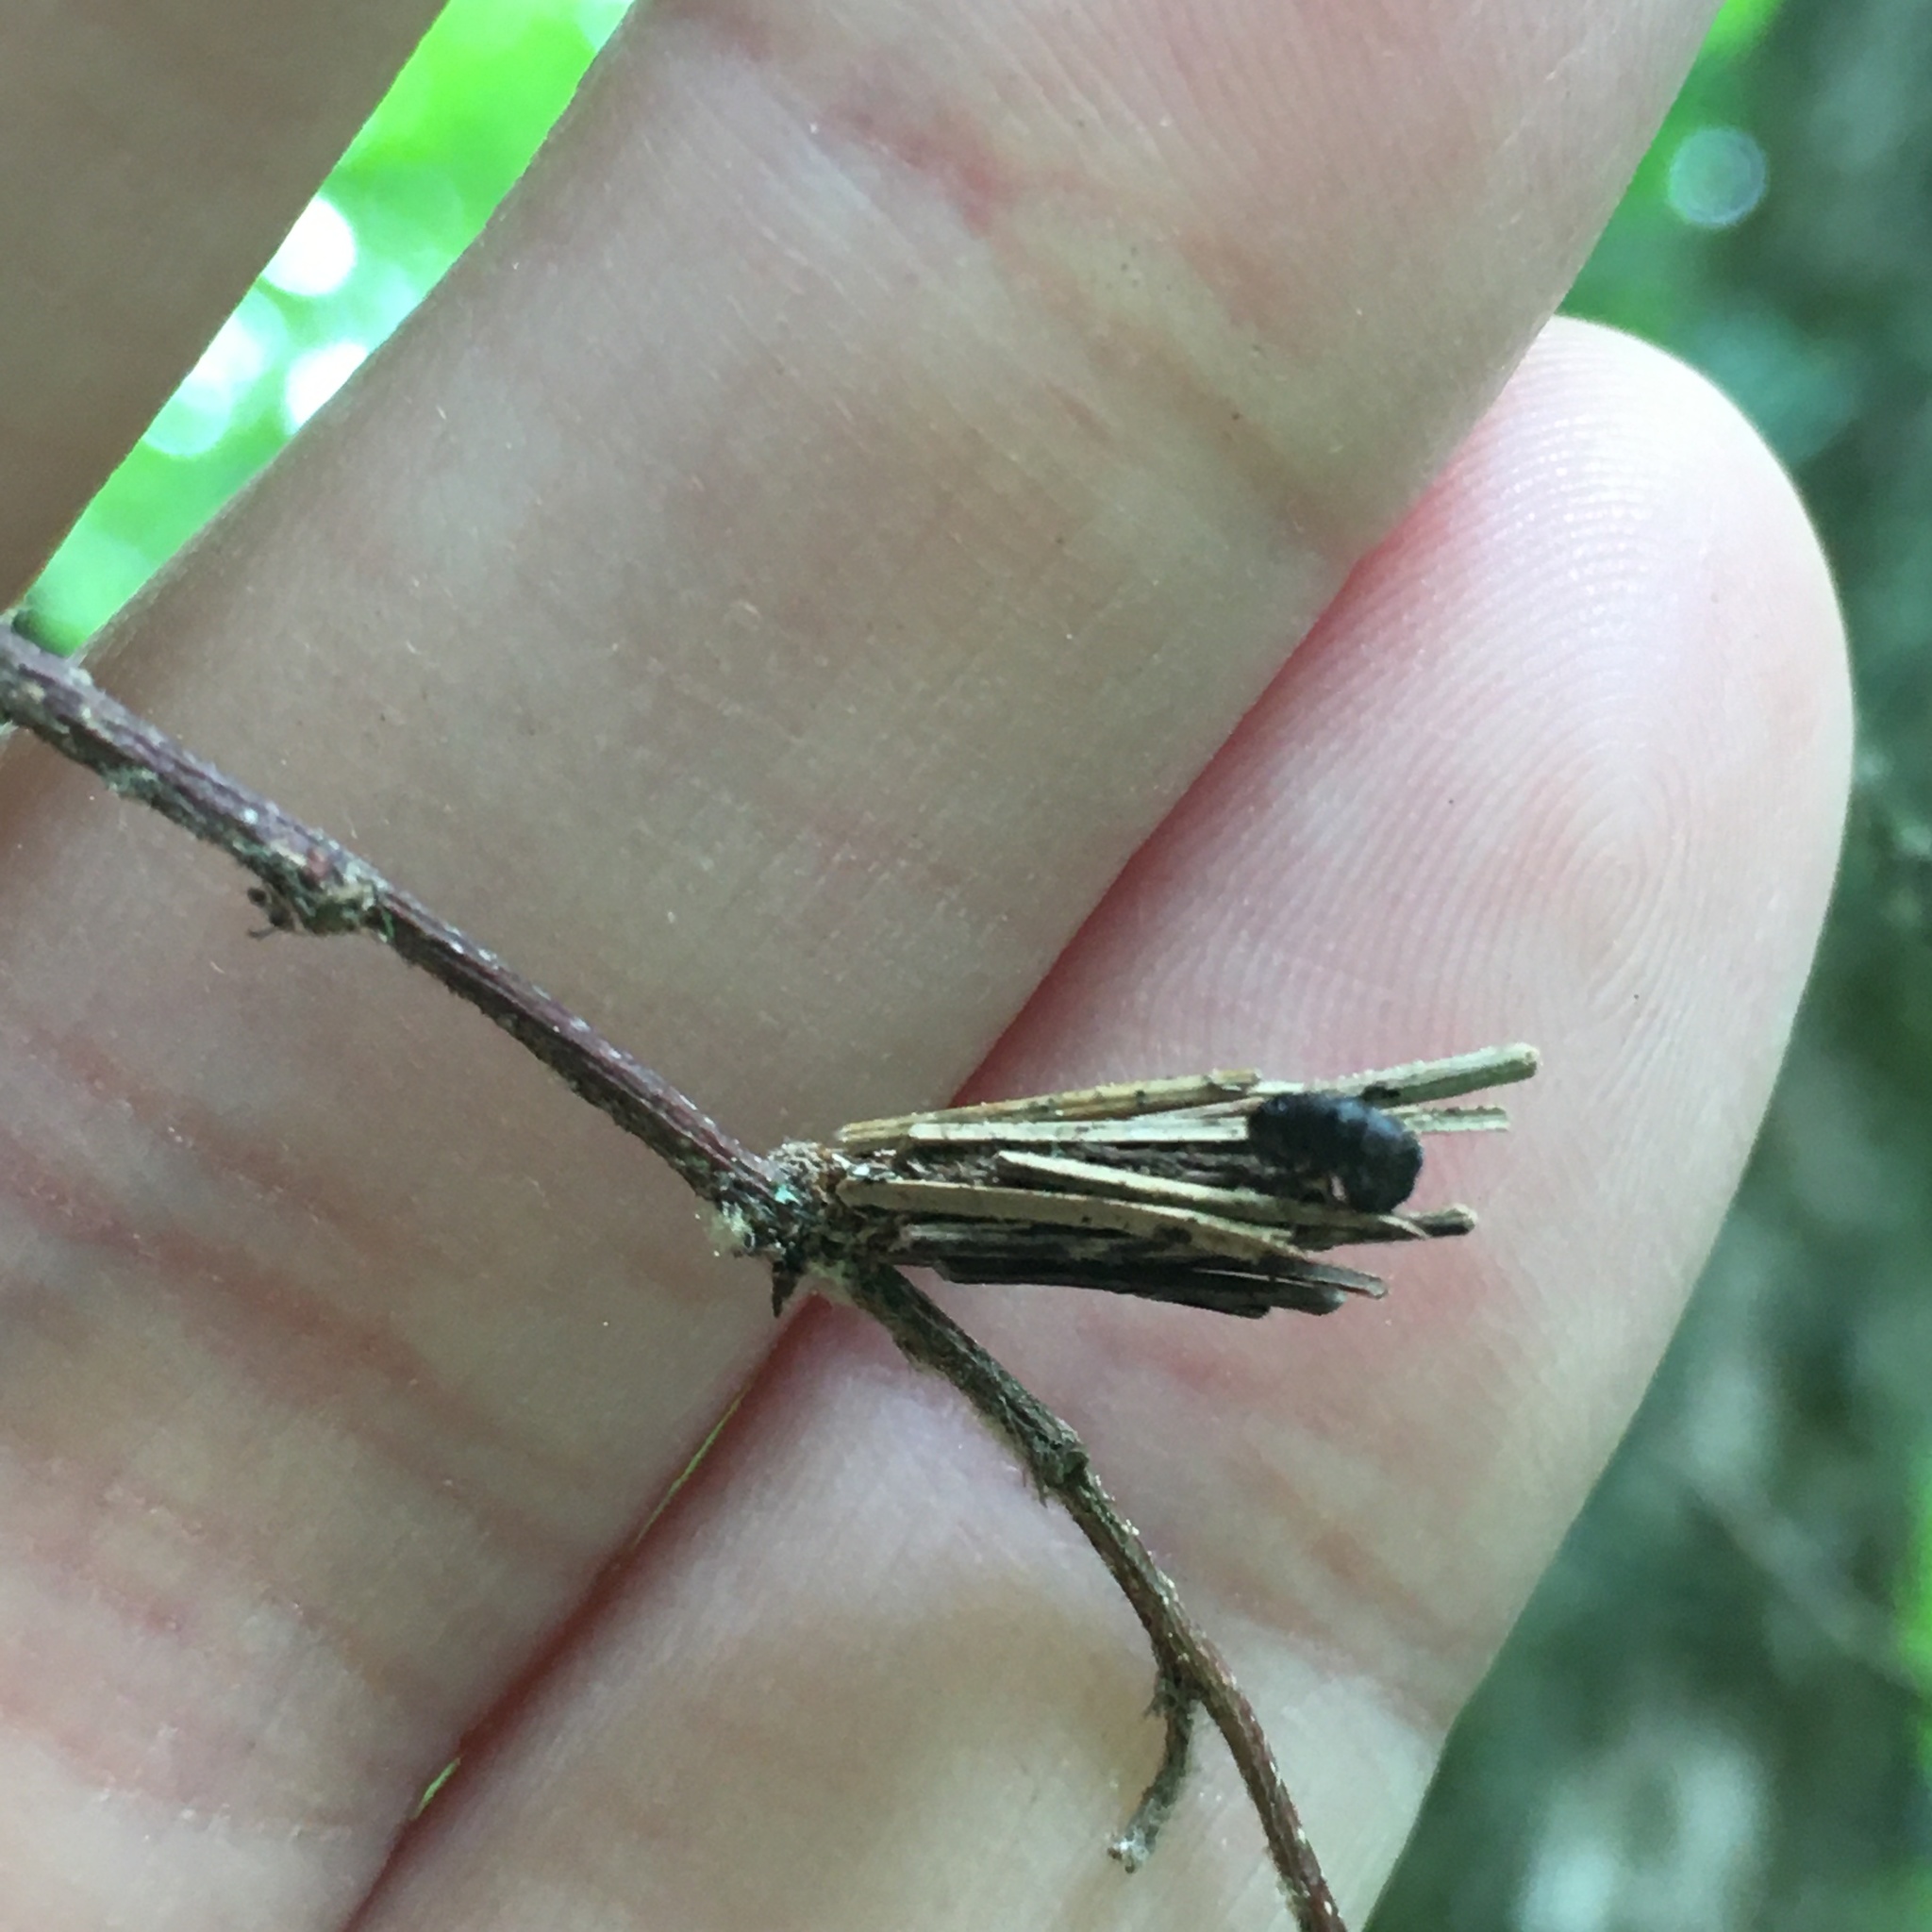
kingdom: Animalia
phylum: Arthropoda
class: Insecta
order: Lepidoptera
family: Psychidae
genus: Psyche
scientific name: Psyche casta
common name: Common sweep
